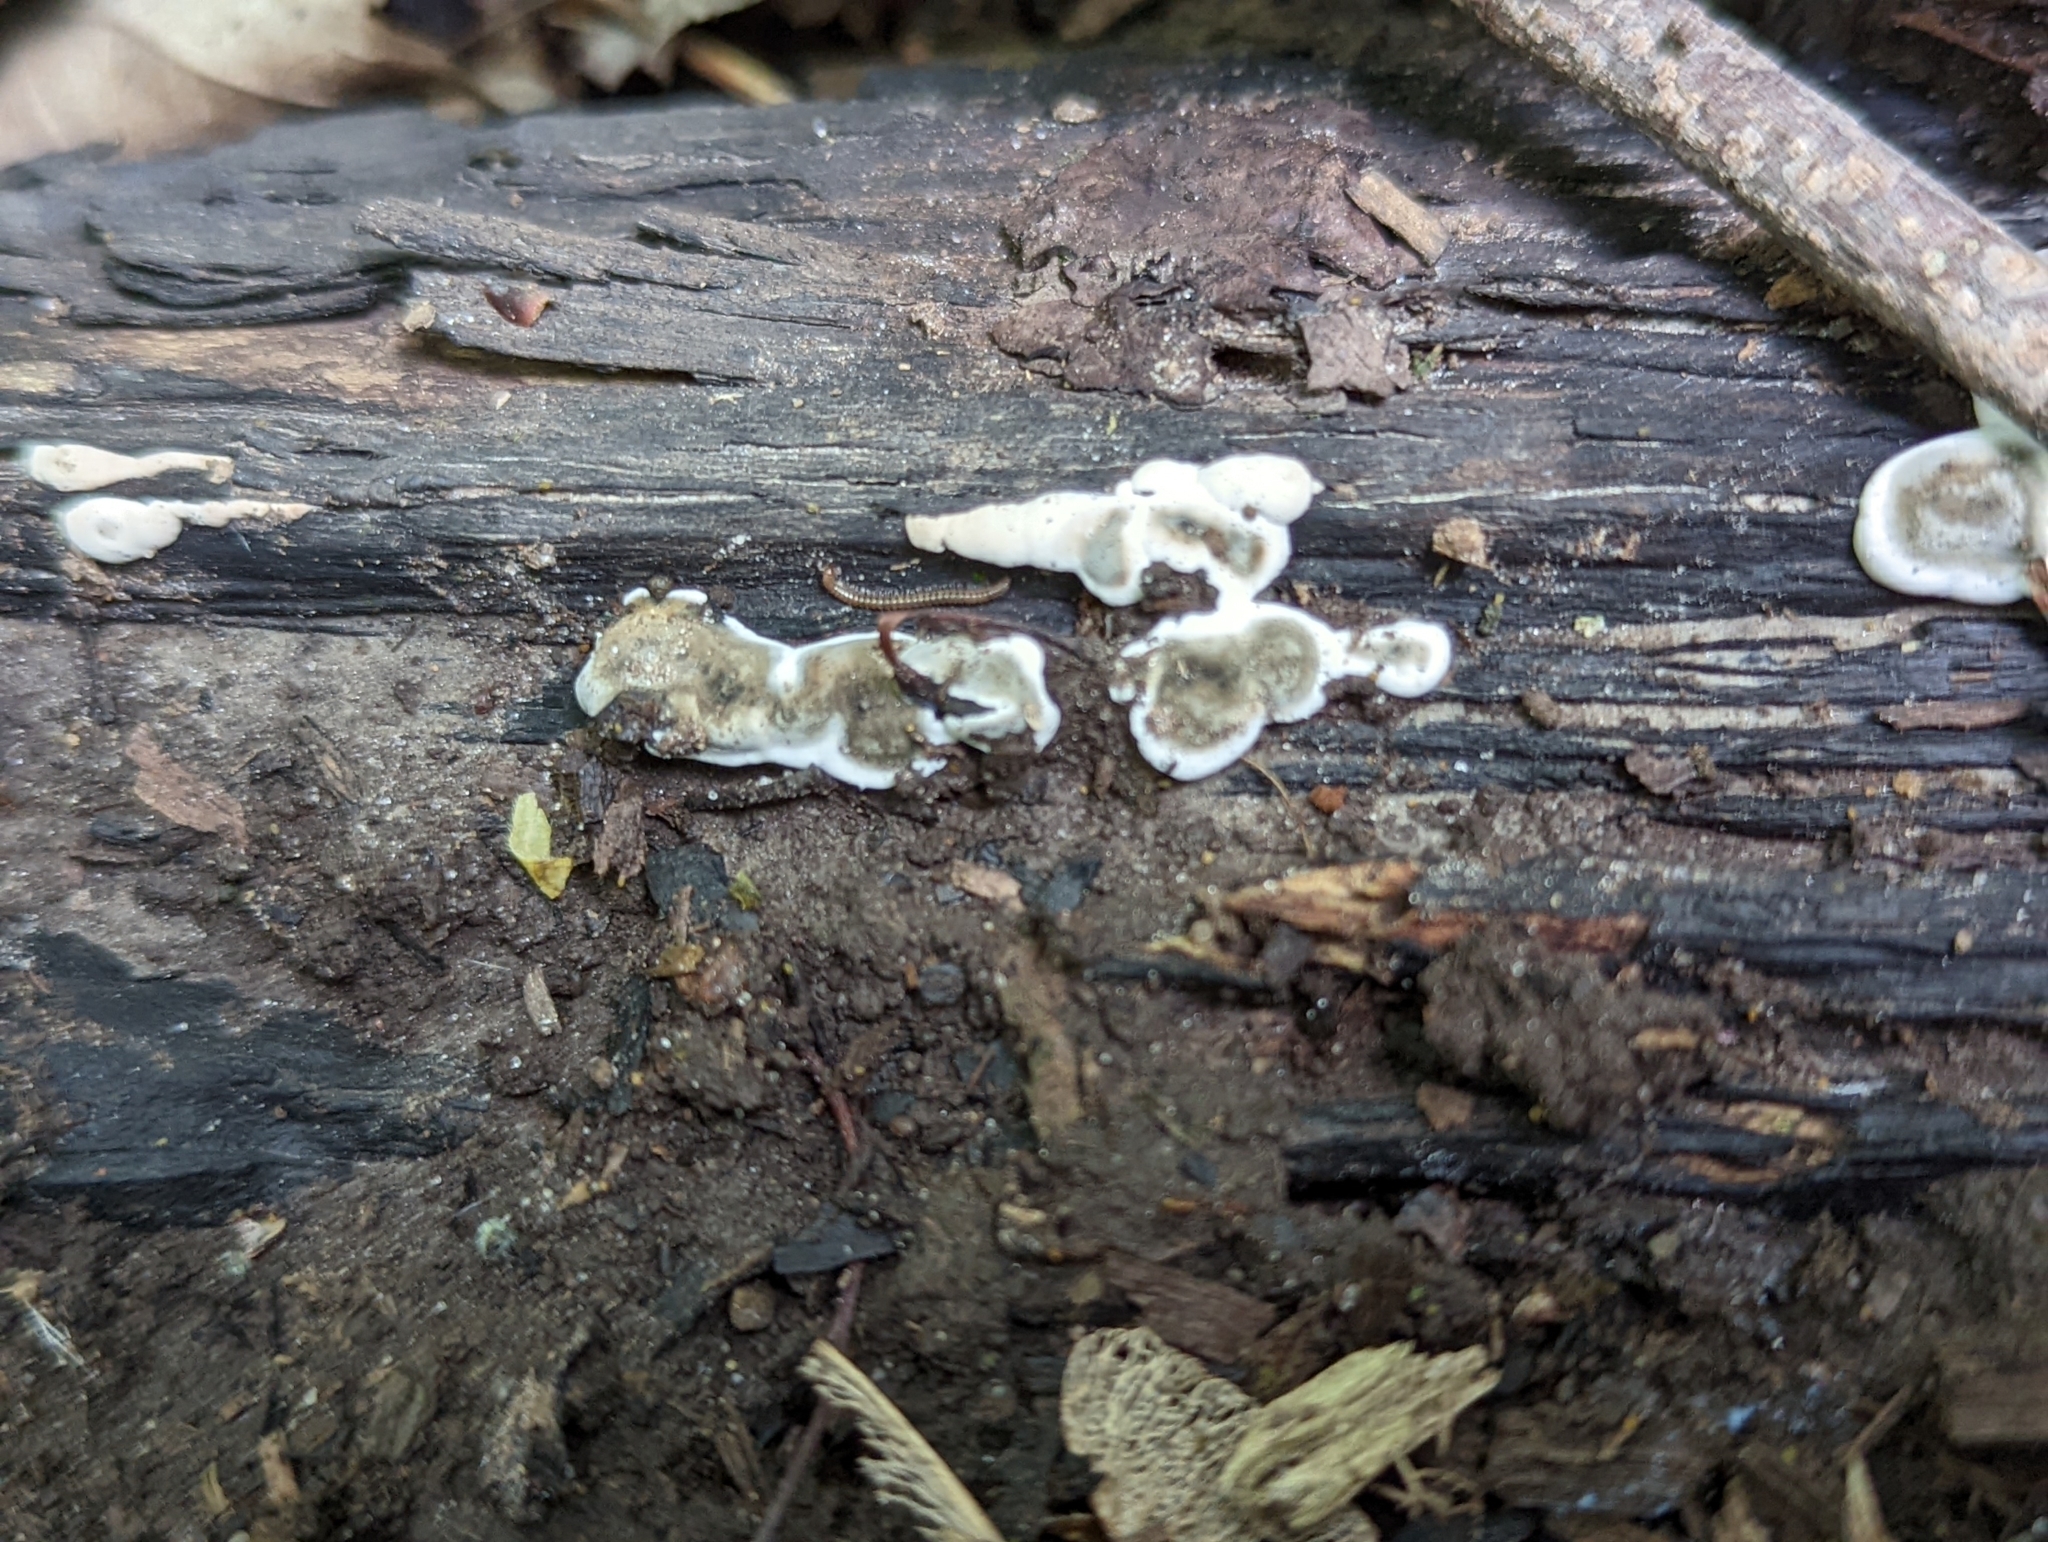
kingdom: Fungi
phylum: Ascomycota
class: Sordariomycetes
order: Xylariales
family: Xylariaceae
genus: Kretzschmaria
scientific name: Kretzschmaria deusta
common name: Brittle cinder
